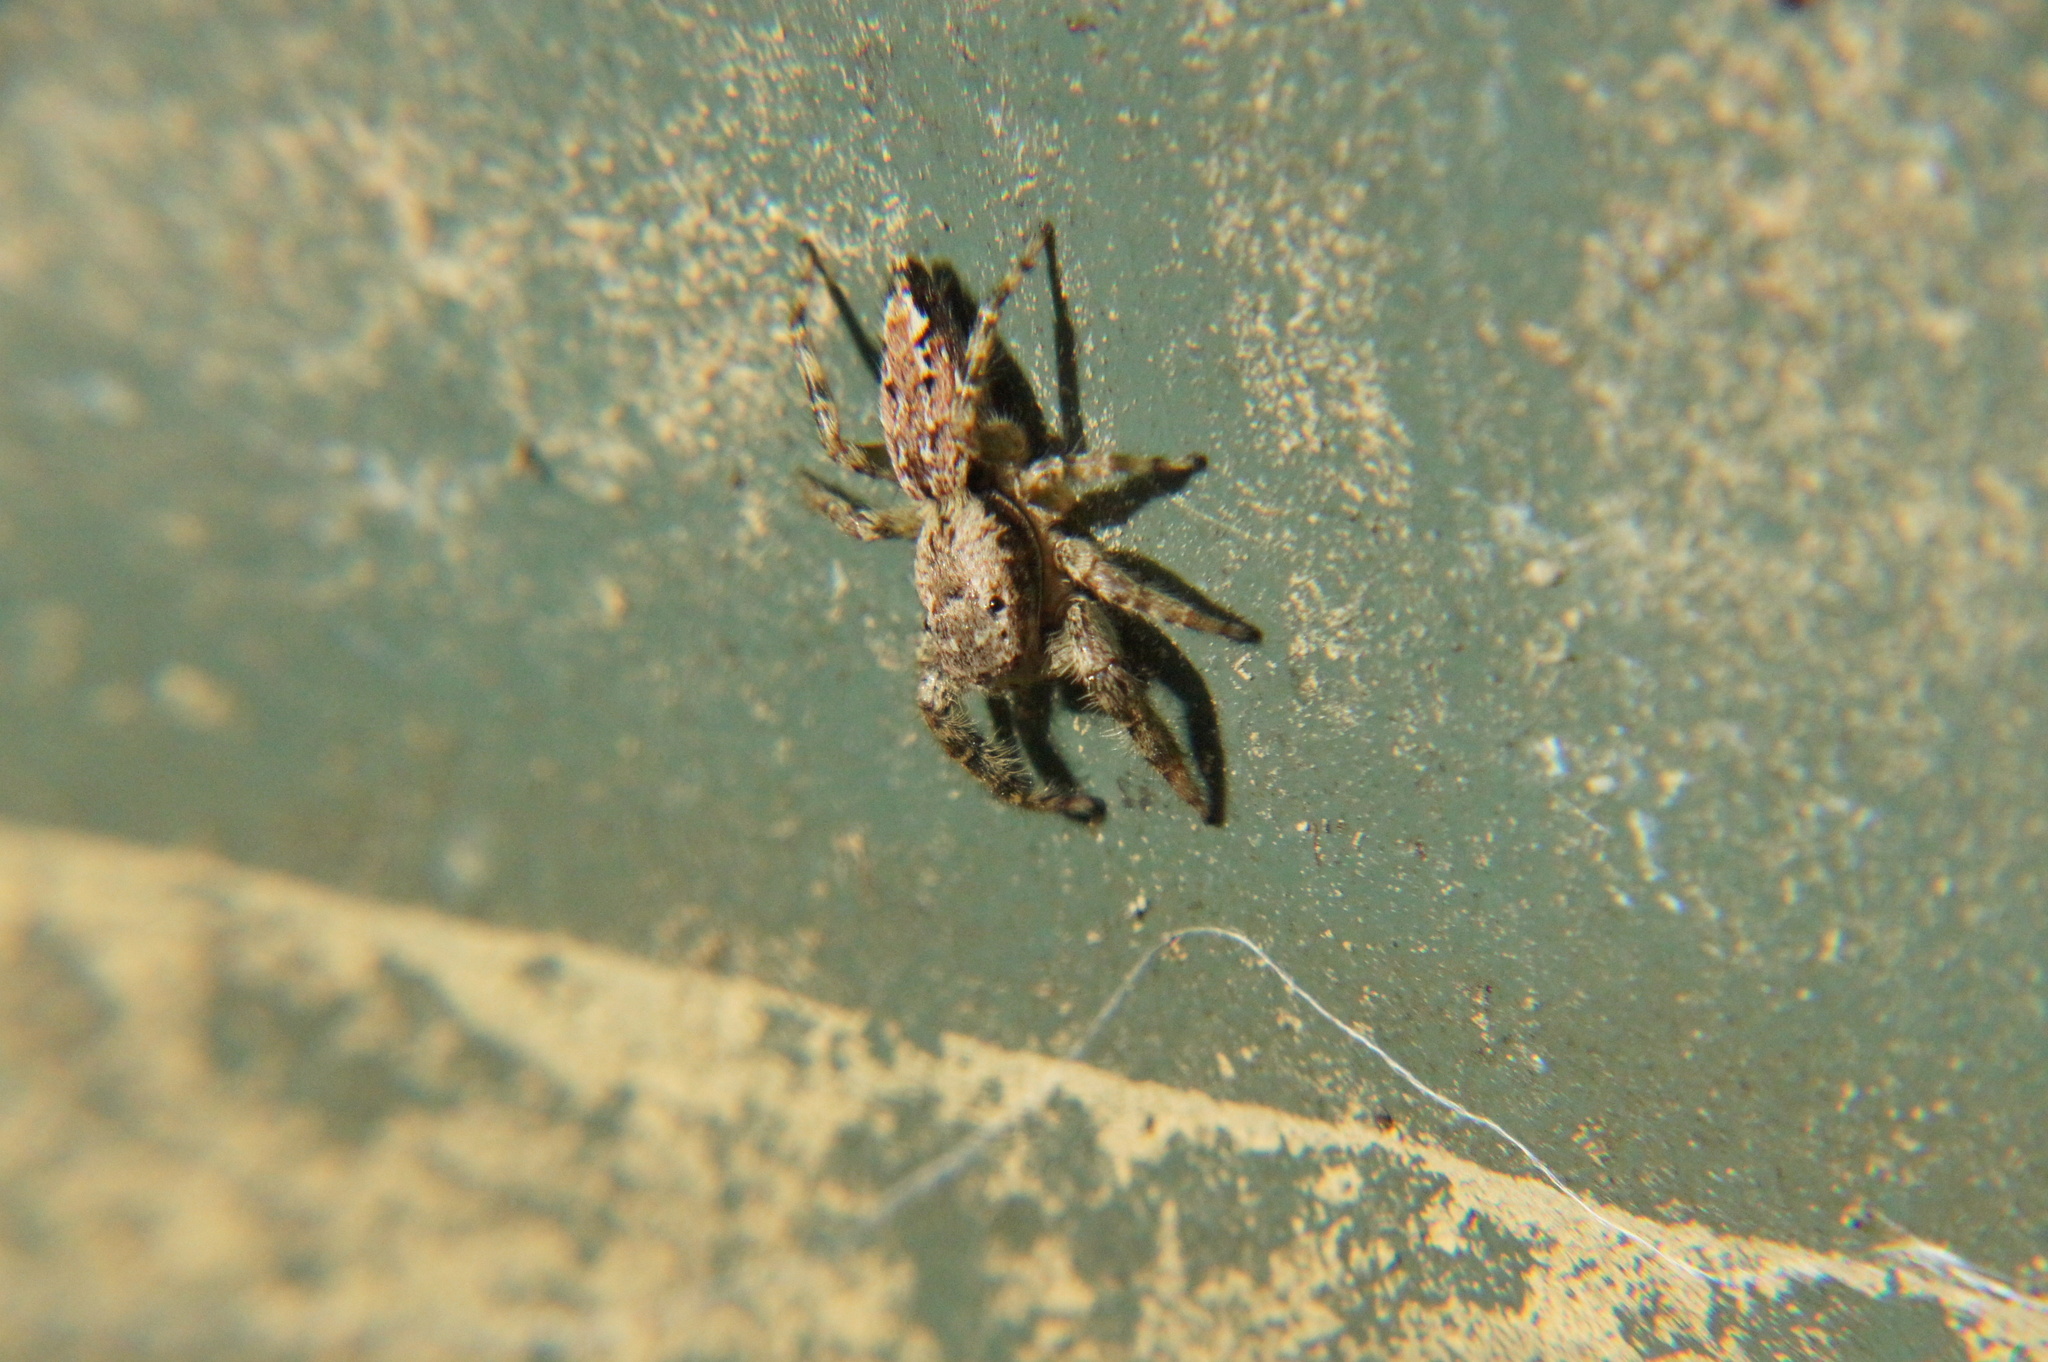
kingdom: Animalia
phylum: Arthropoda
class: Arachnida
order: Araneae
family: Salticidae
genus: Marpissa
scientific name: Marpissa muscosa
